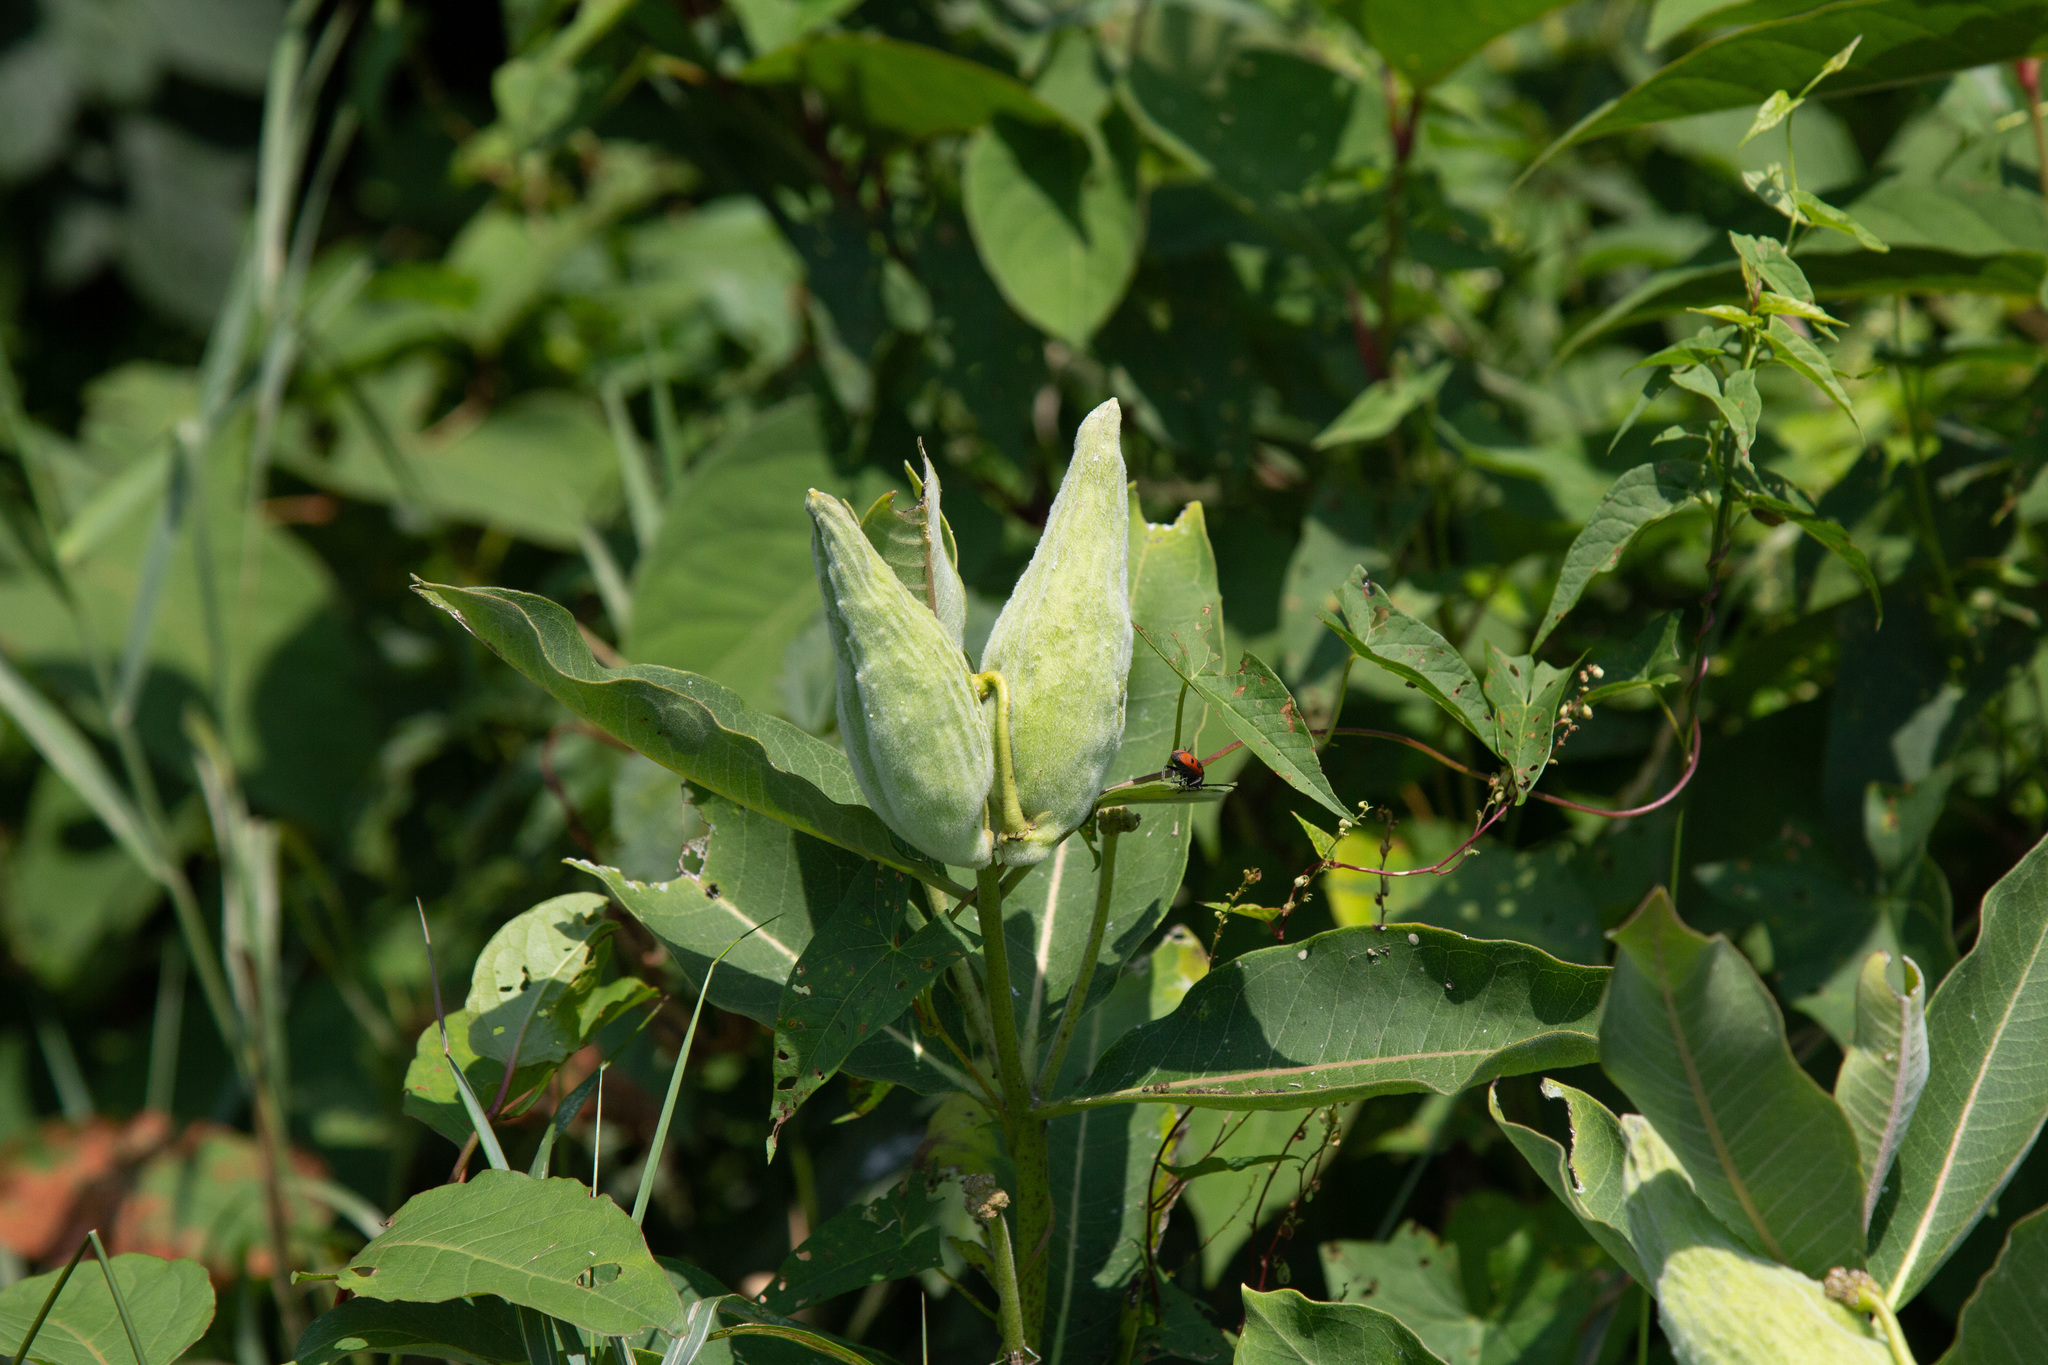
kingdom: Plantae
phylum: Tracheophyta
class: Magnoliopsida
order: Gentianales
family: Apocynaceae
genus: Asclepias
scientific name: Asclepias syriaca
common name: Common milkweed
